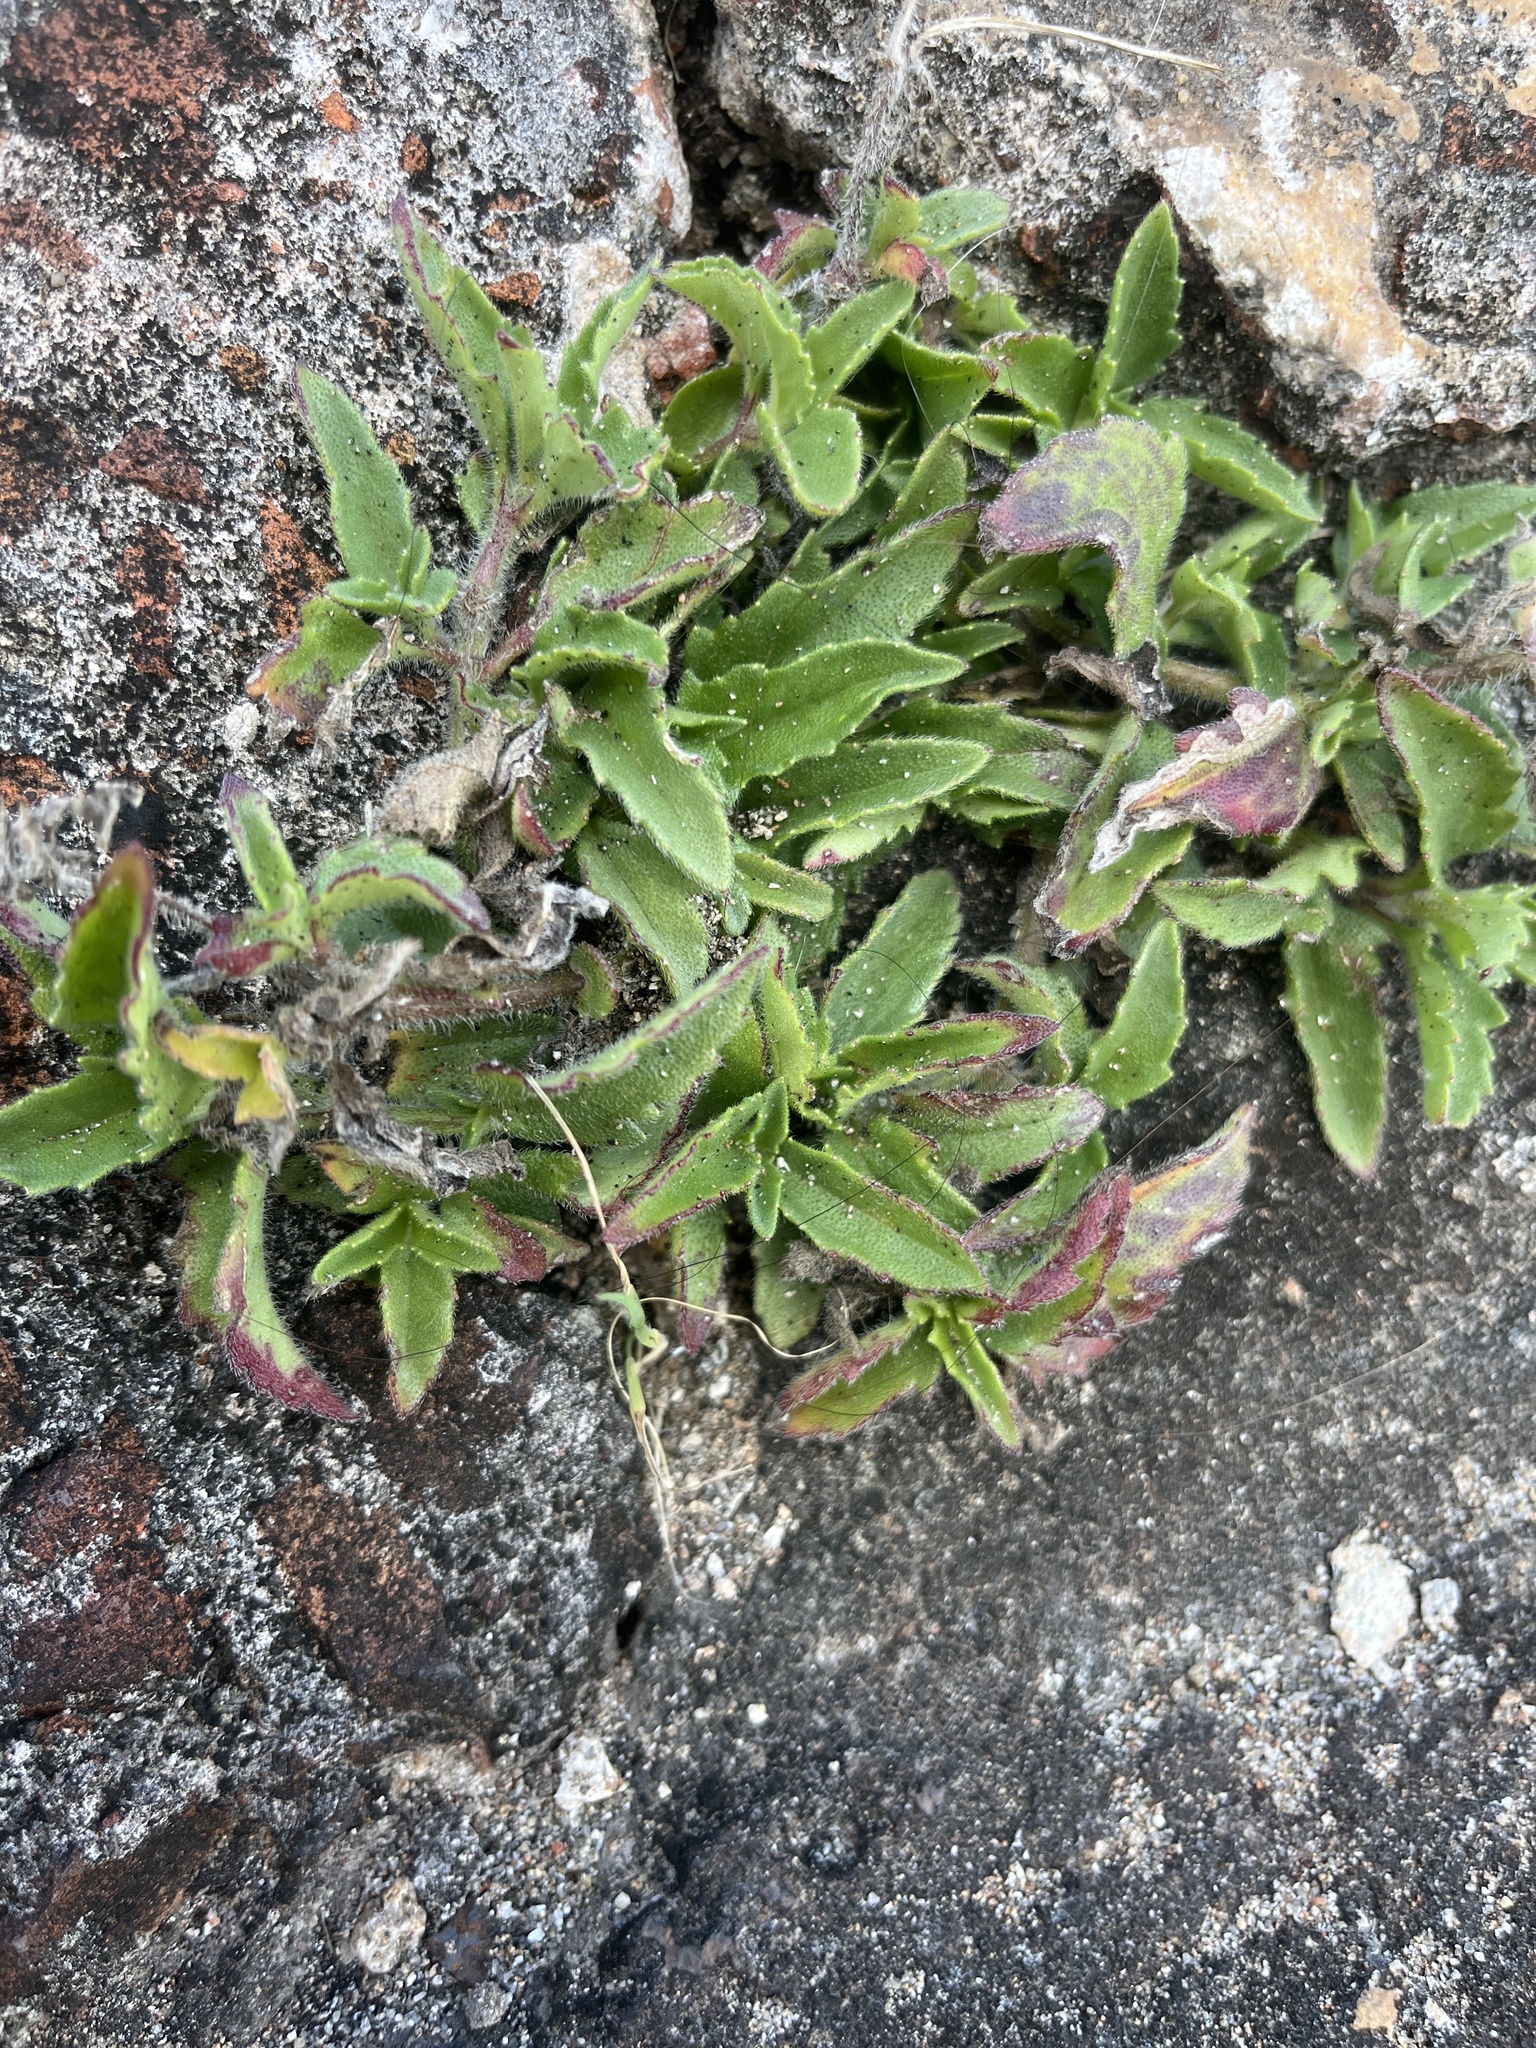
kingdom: Plantae
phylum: Tracheophyta
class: Magnoliopsida
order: Asterales
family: Asteraceae
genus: Tridax
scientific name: Tridax procumbens
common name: Coatbuttons
